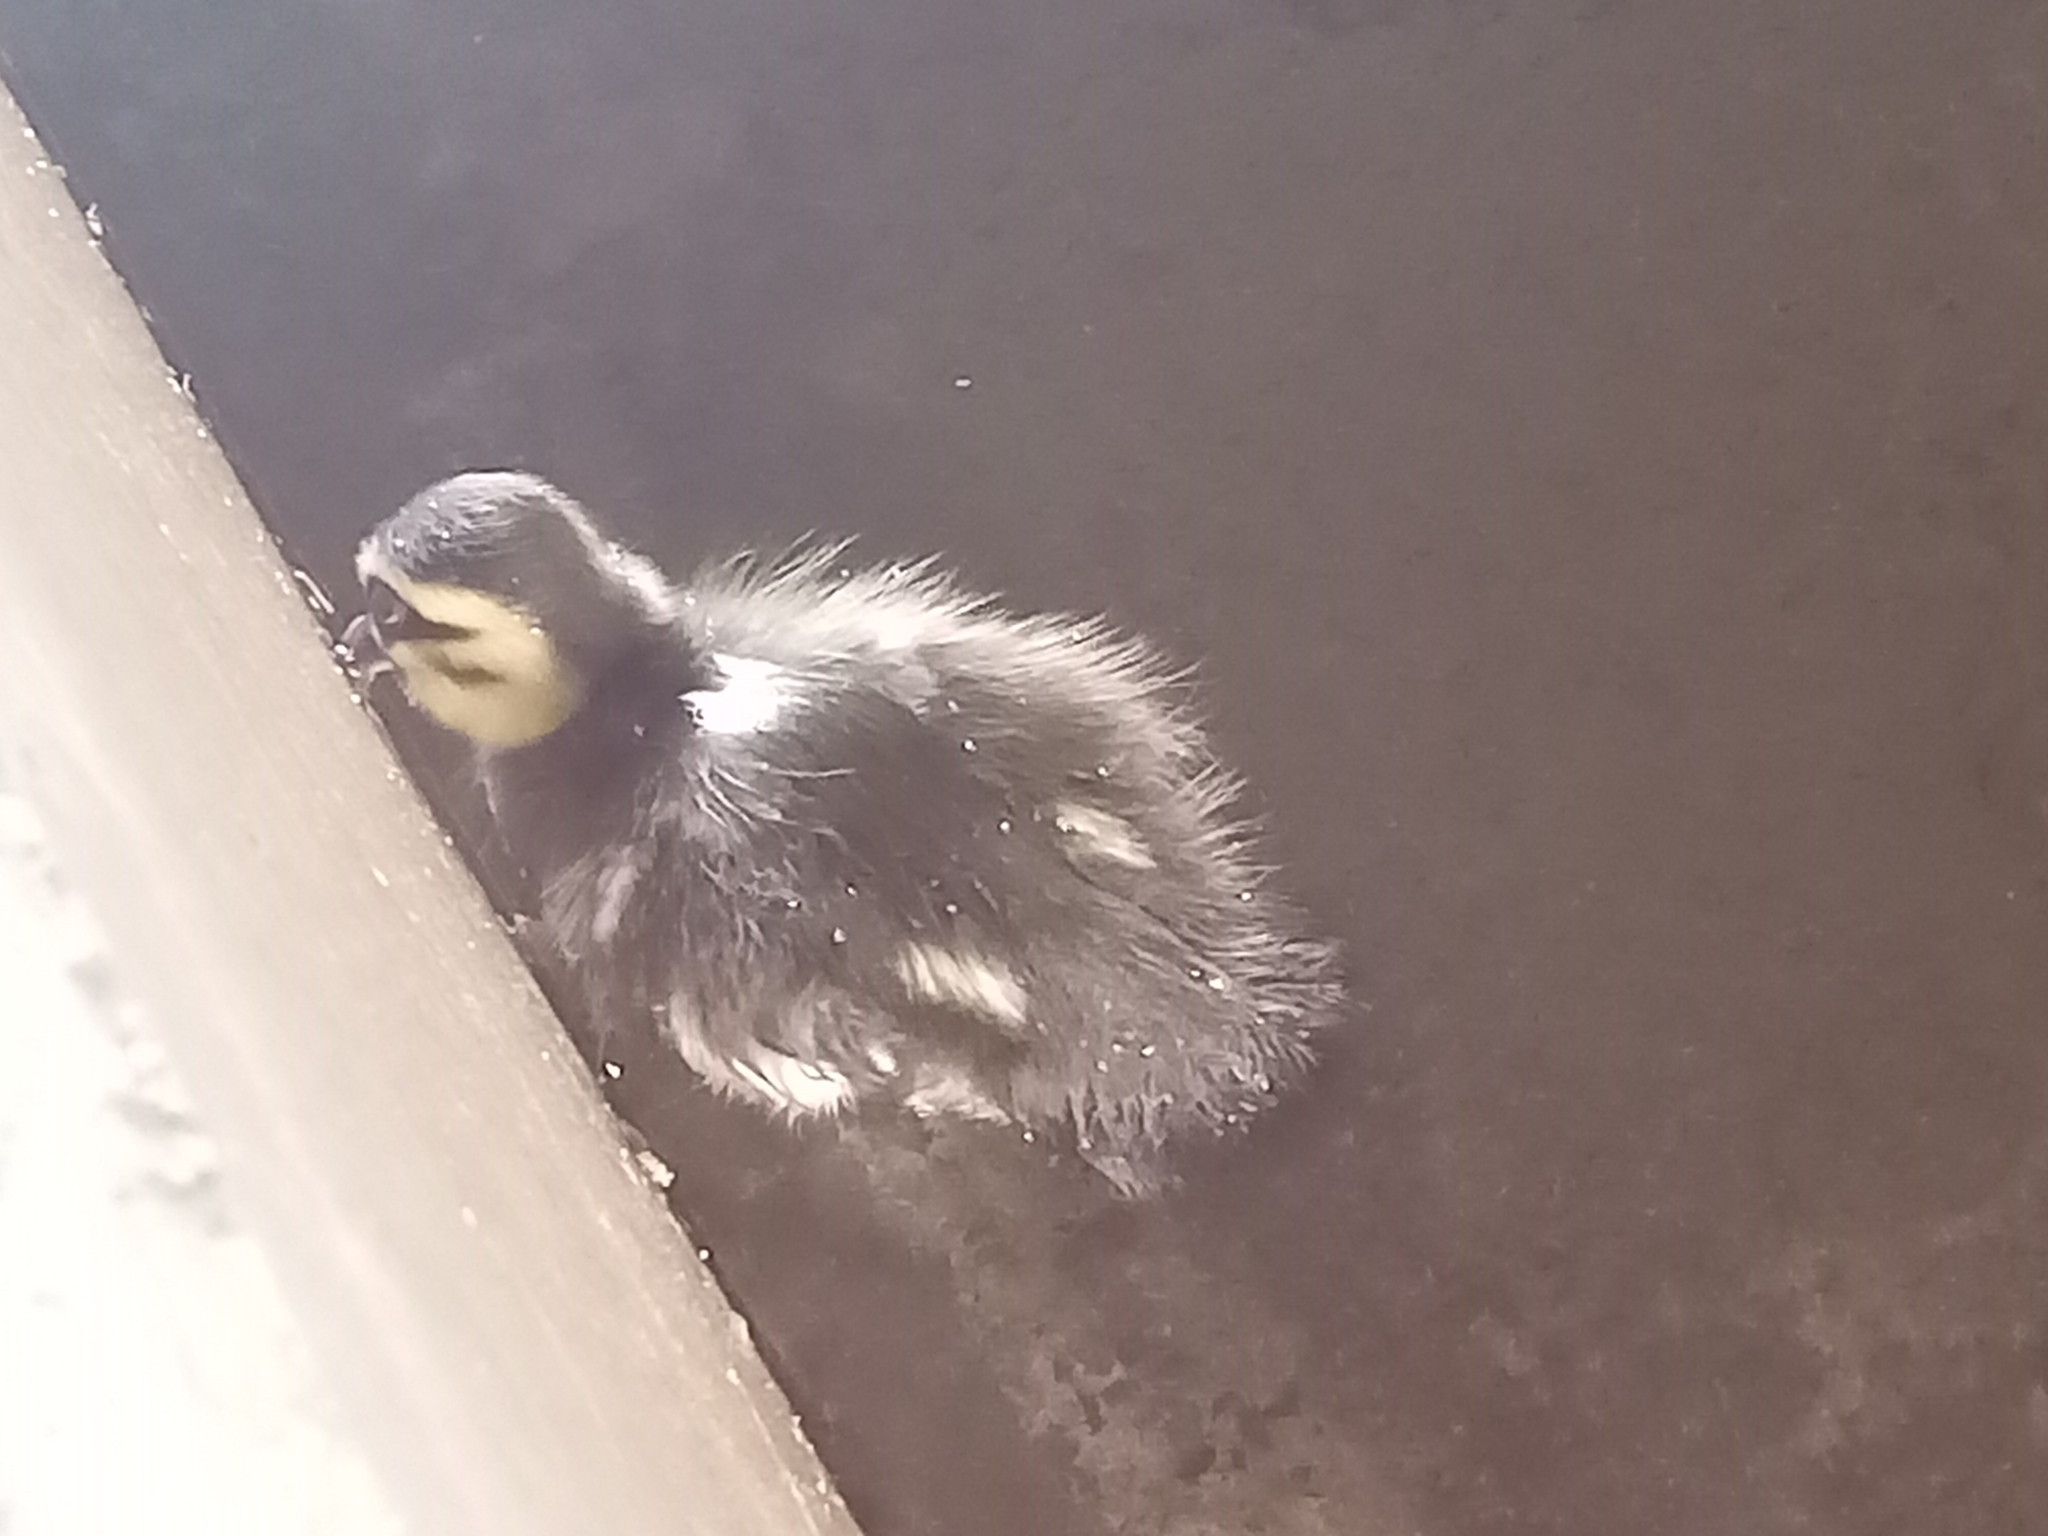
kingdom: Animalia
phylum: Chordata
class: Aves
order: Anseriformes
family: Anatidae
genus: Anas
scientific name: Anas superciliosa
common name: Pacific black duck
